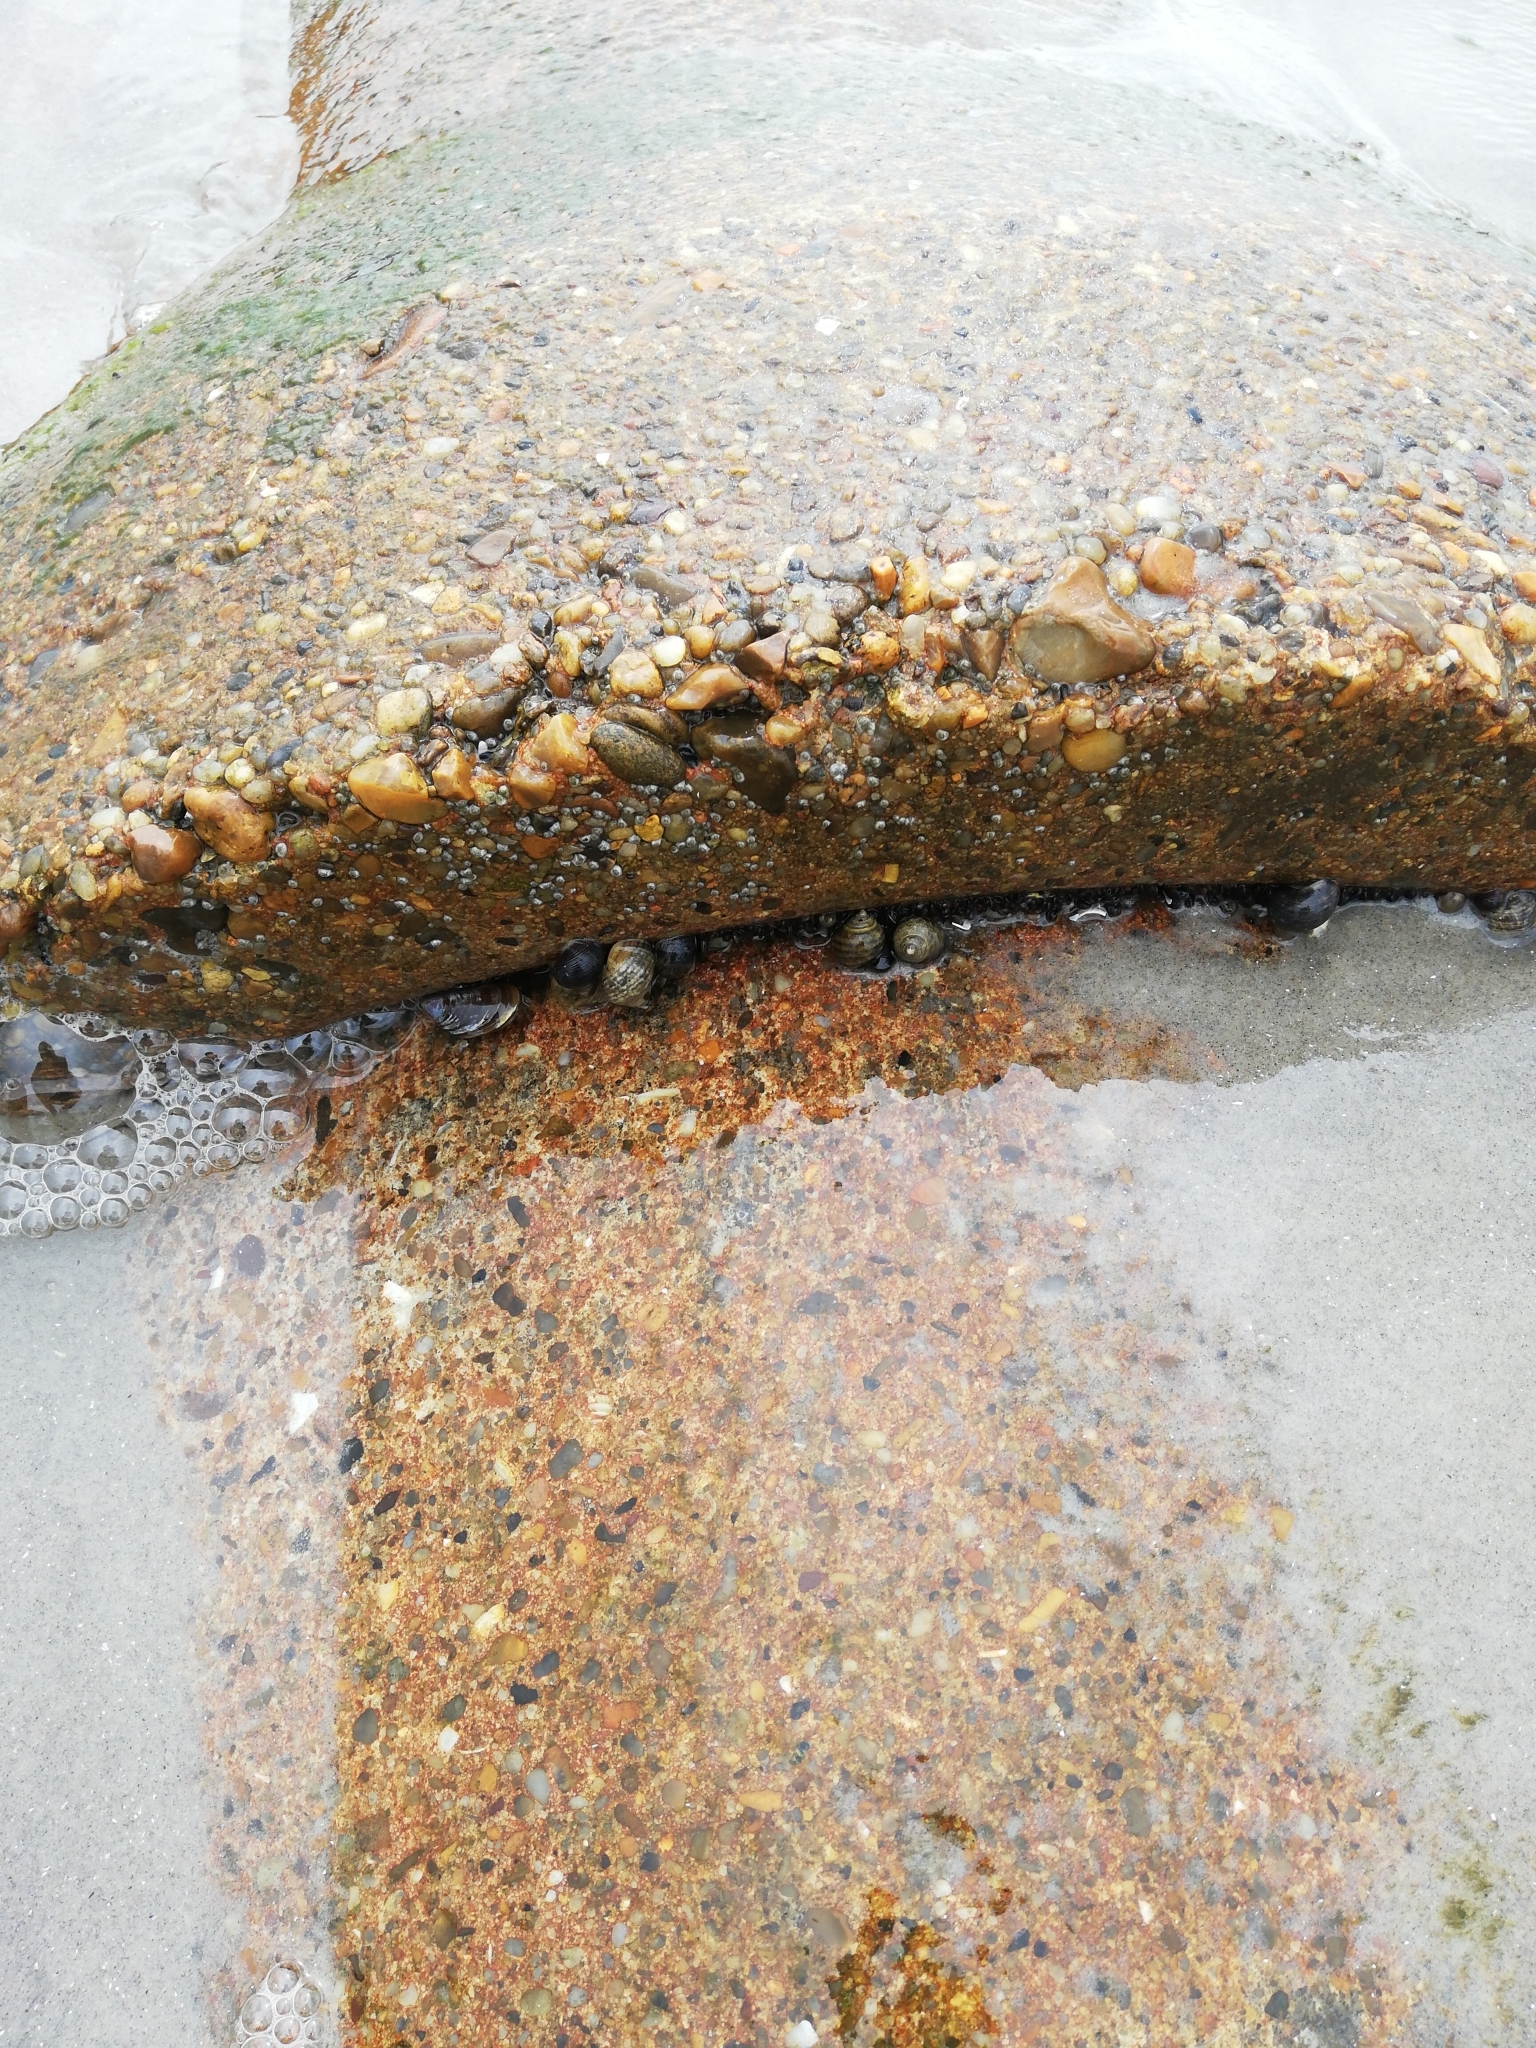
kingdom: Animalia
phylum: Mollusca
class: Gastropoda
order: Littorinimorpha
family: Littorinidae
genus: Littorina
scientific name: Littorina littorea
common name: Common periwinkle
